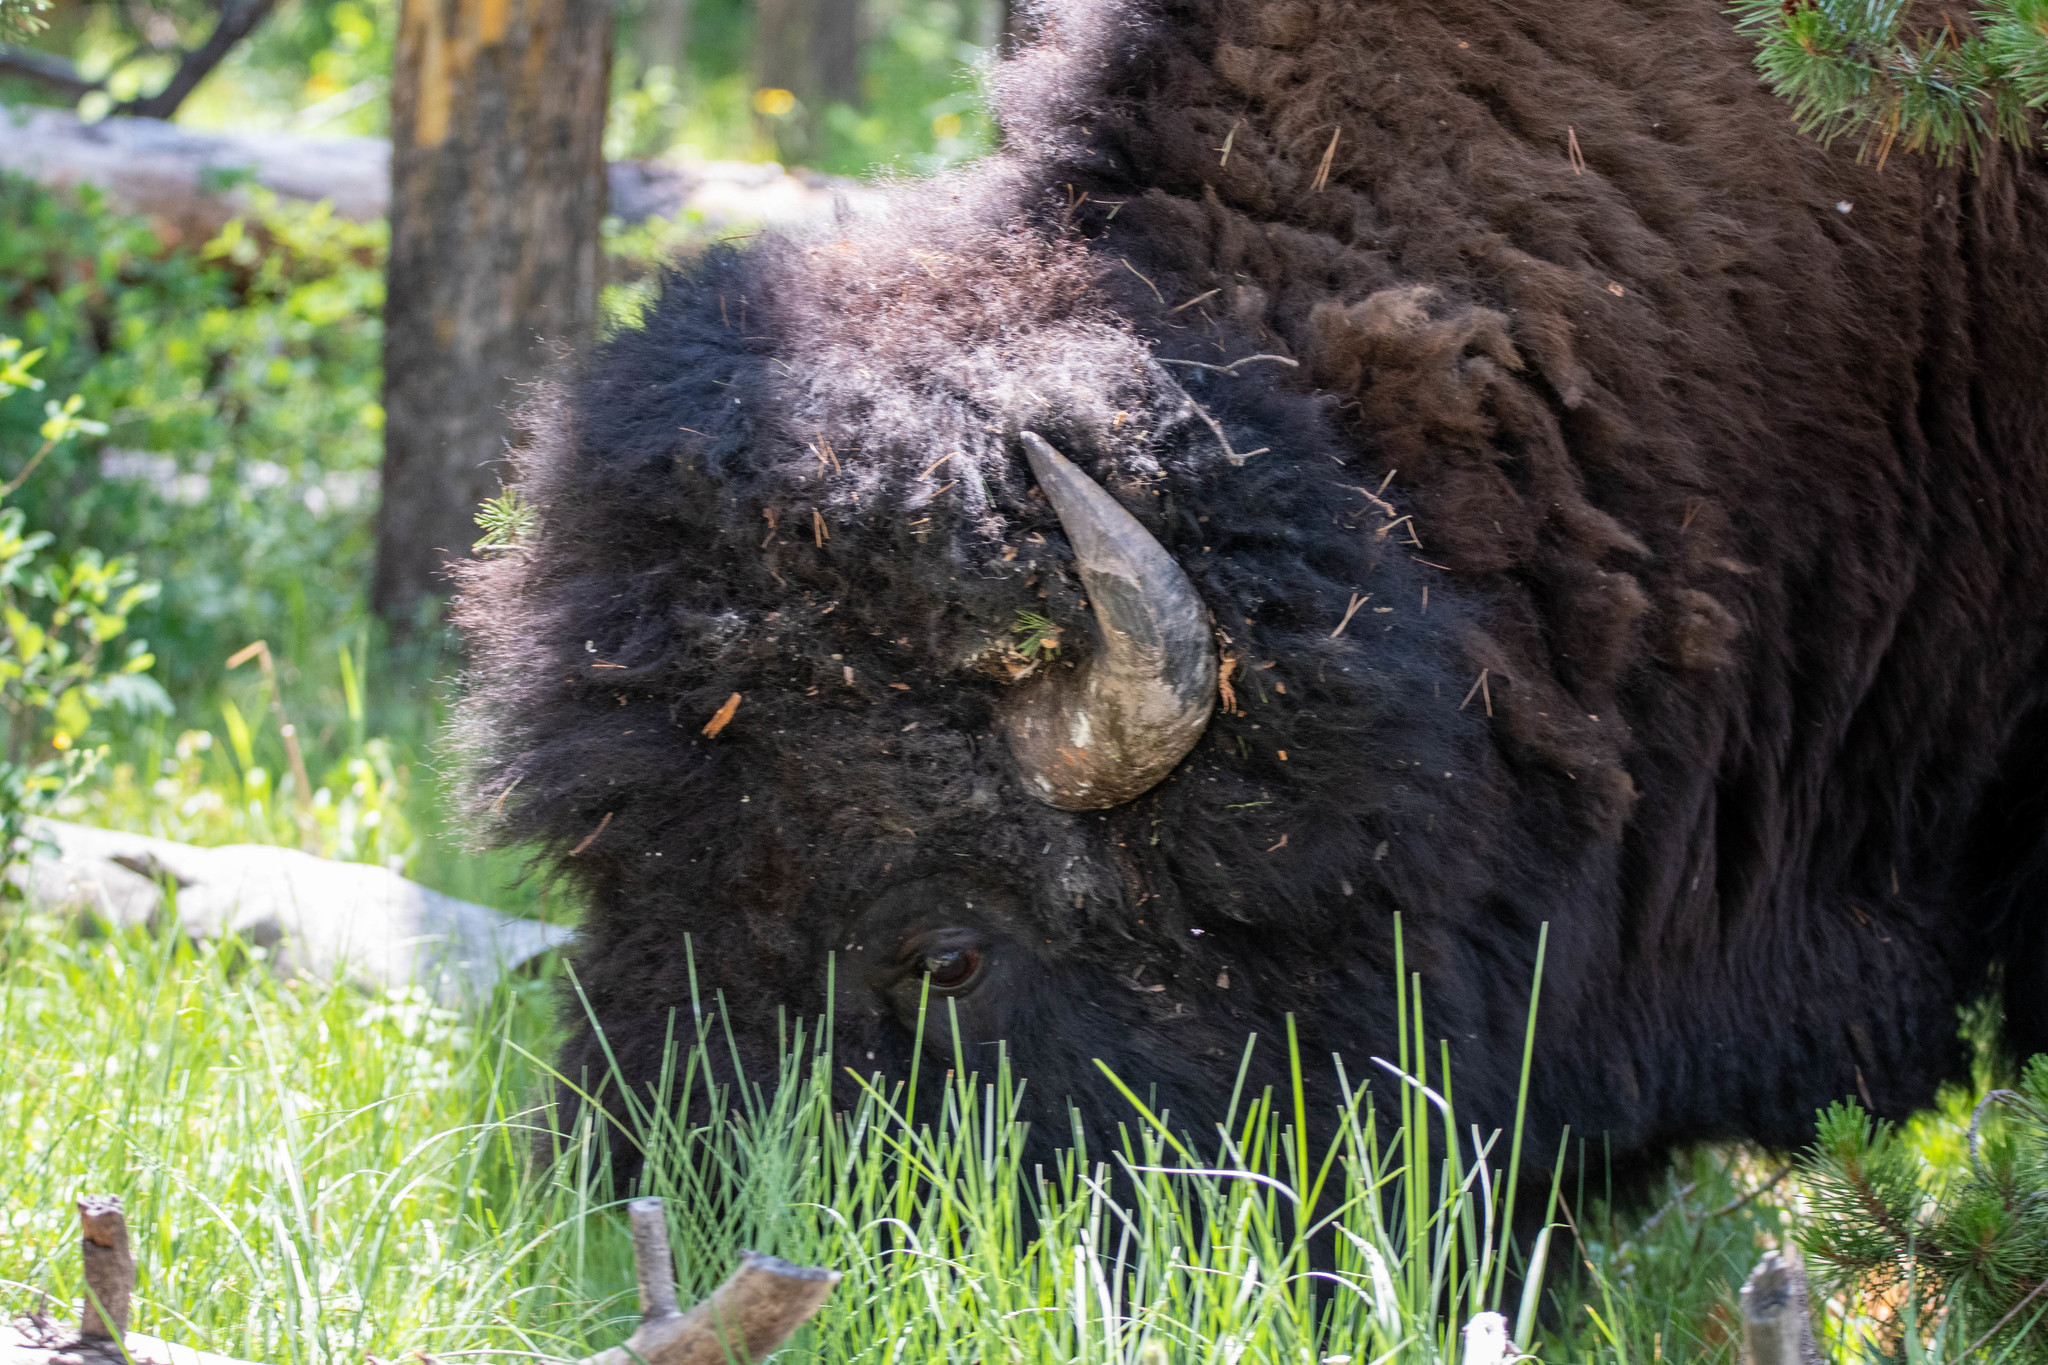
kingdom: Animalia
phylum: Chordata
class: Mammalia
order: Artiodactyla
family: Bovidae
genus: Bison
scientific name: Bison bison
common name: American bison
